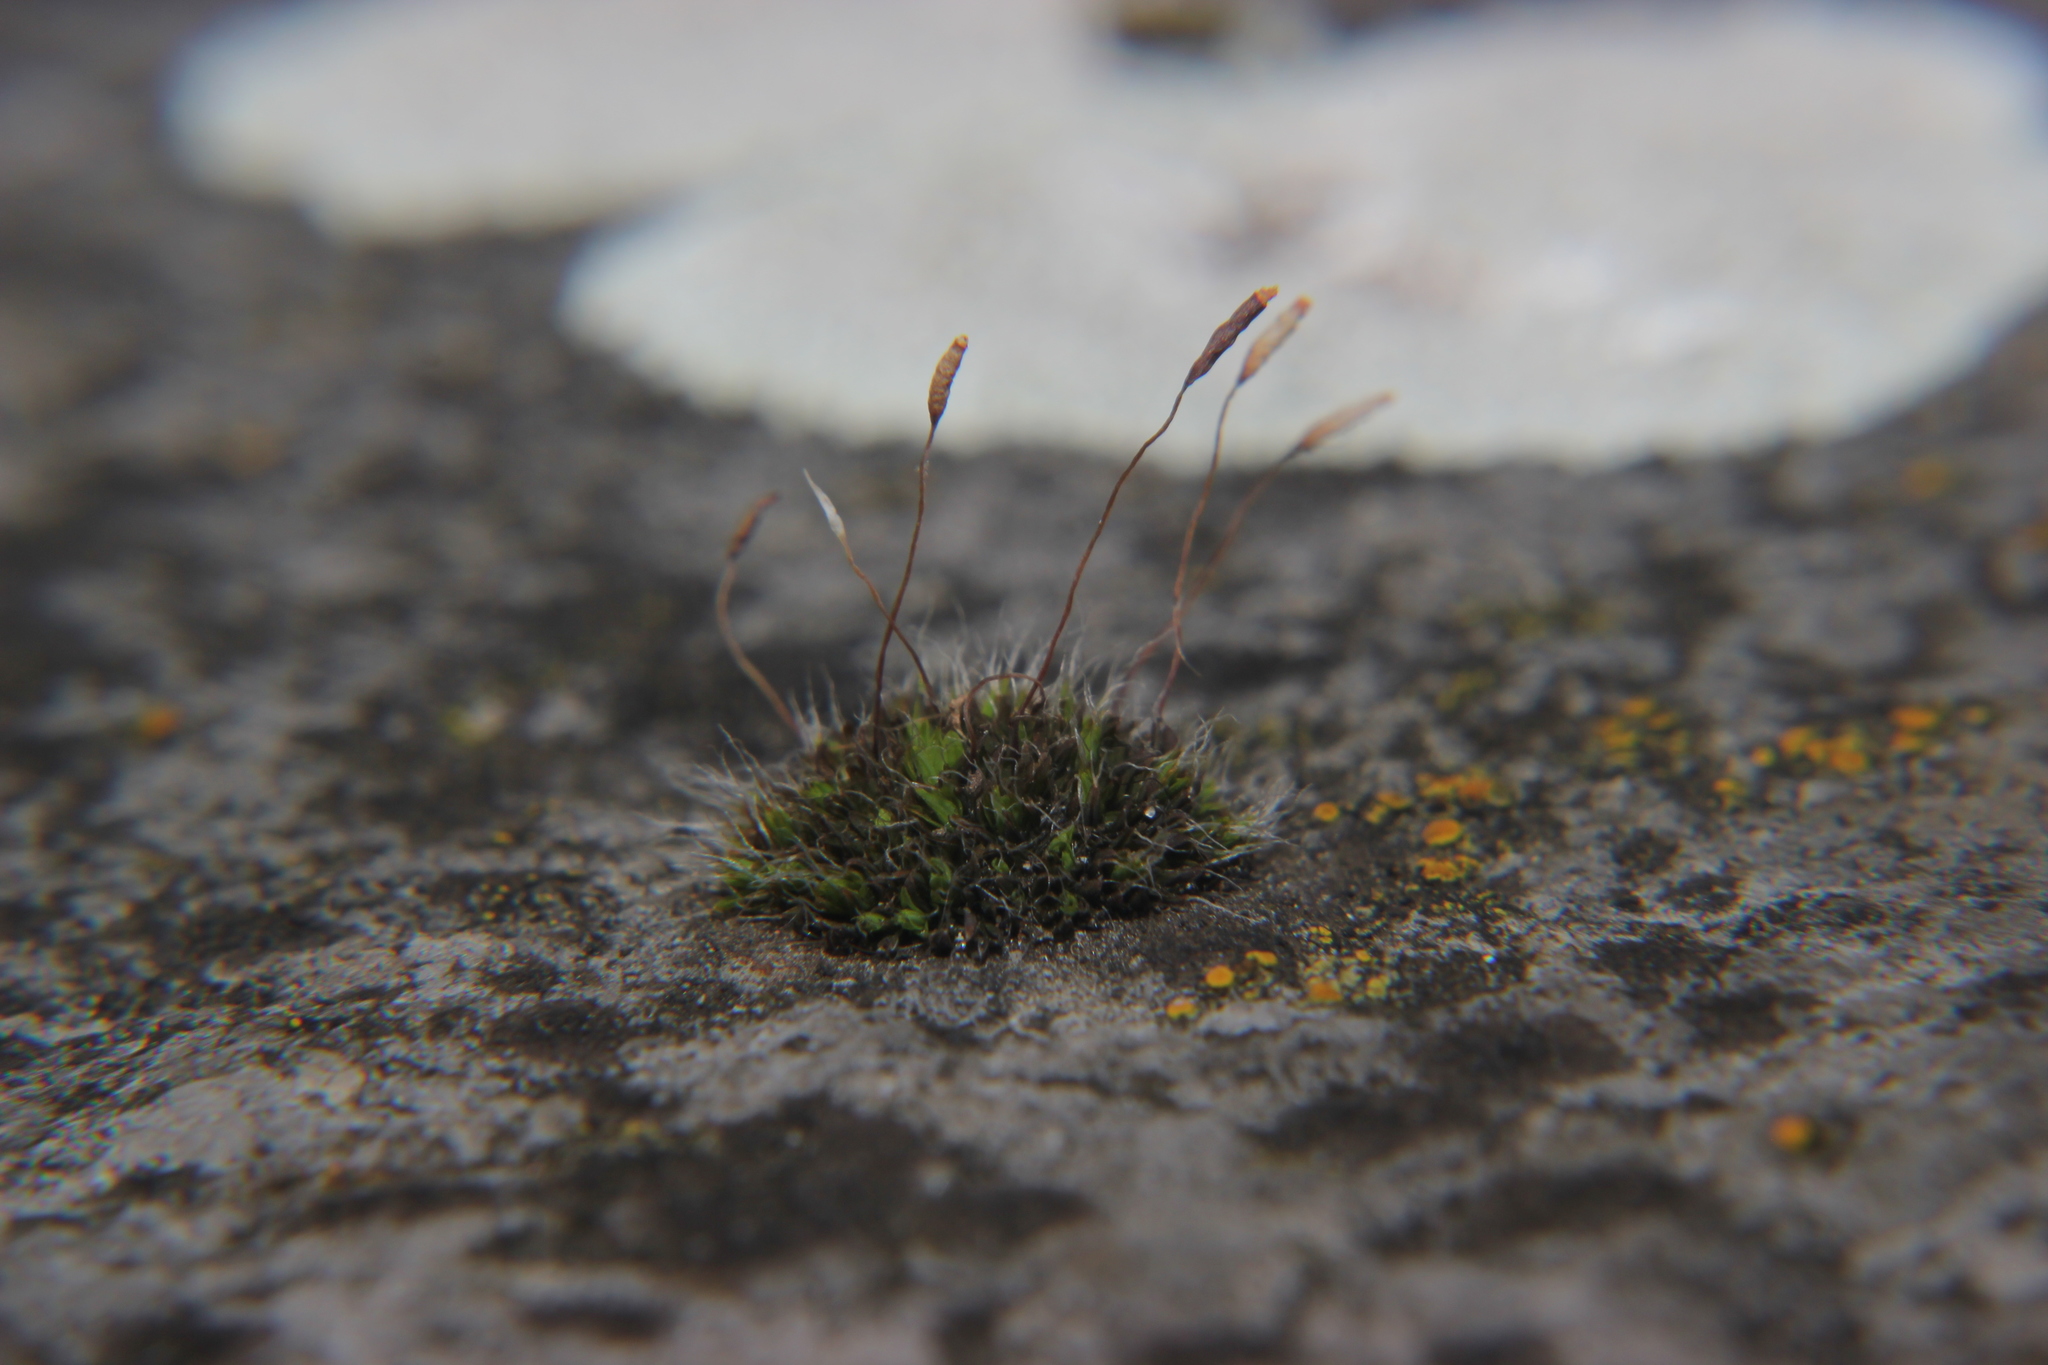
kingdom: Plantae
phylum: Bryophyta
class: Bryopsida
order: Pottiales
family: Pottiaceae
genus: Tortula
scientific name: Tortula muralis
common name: Wall screw-moss
